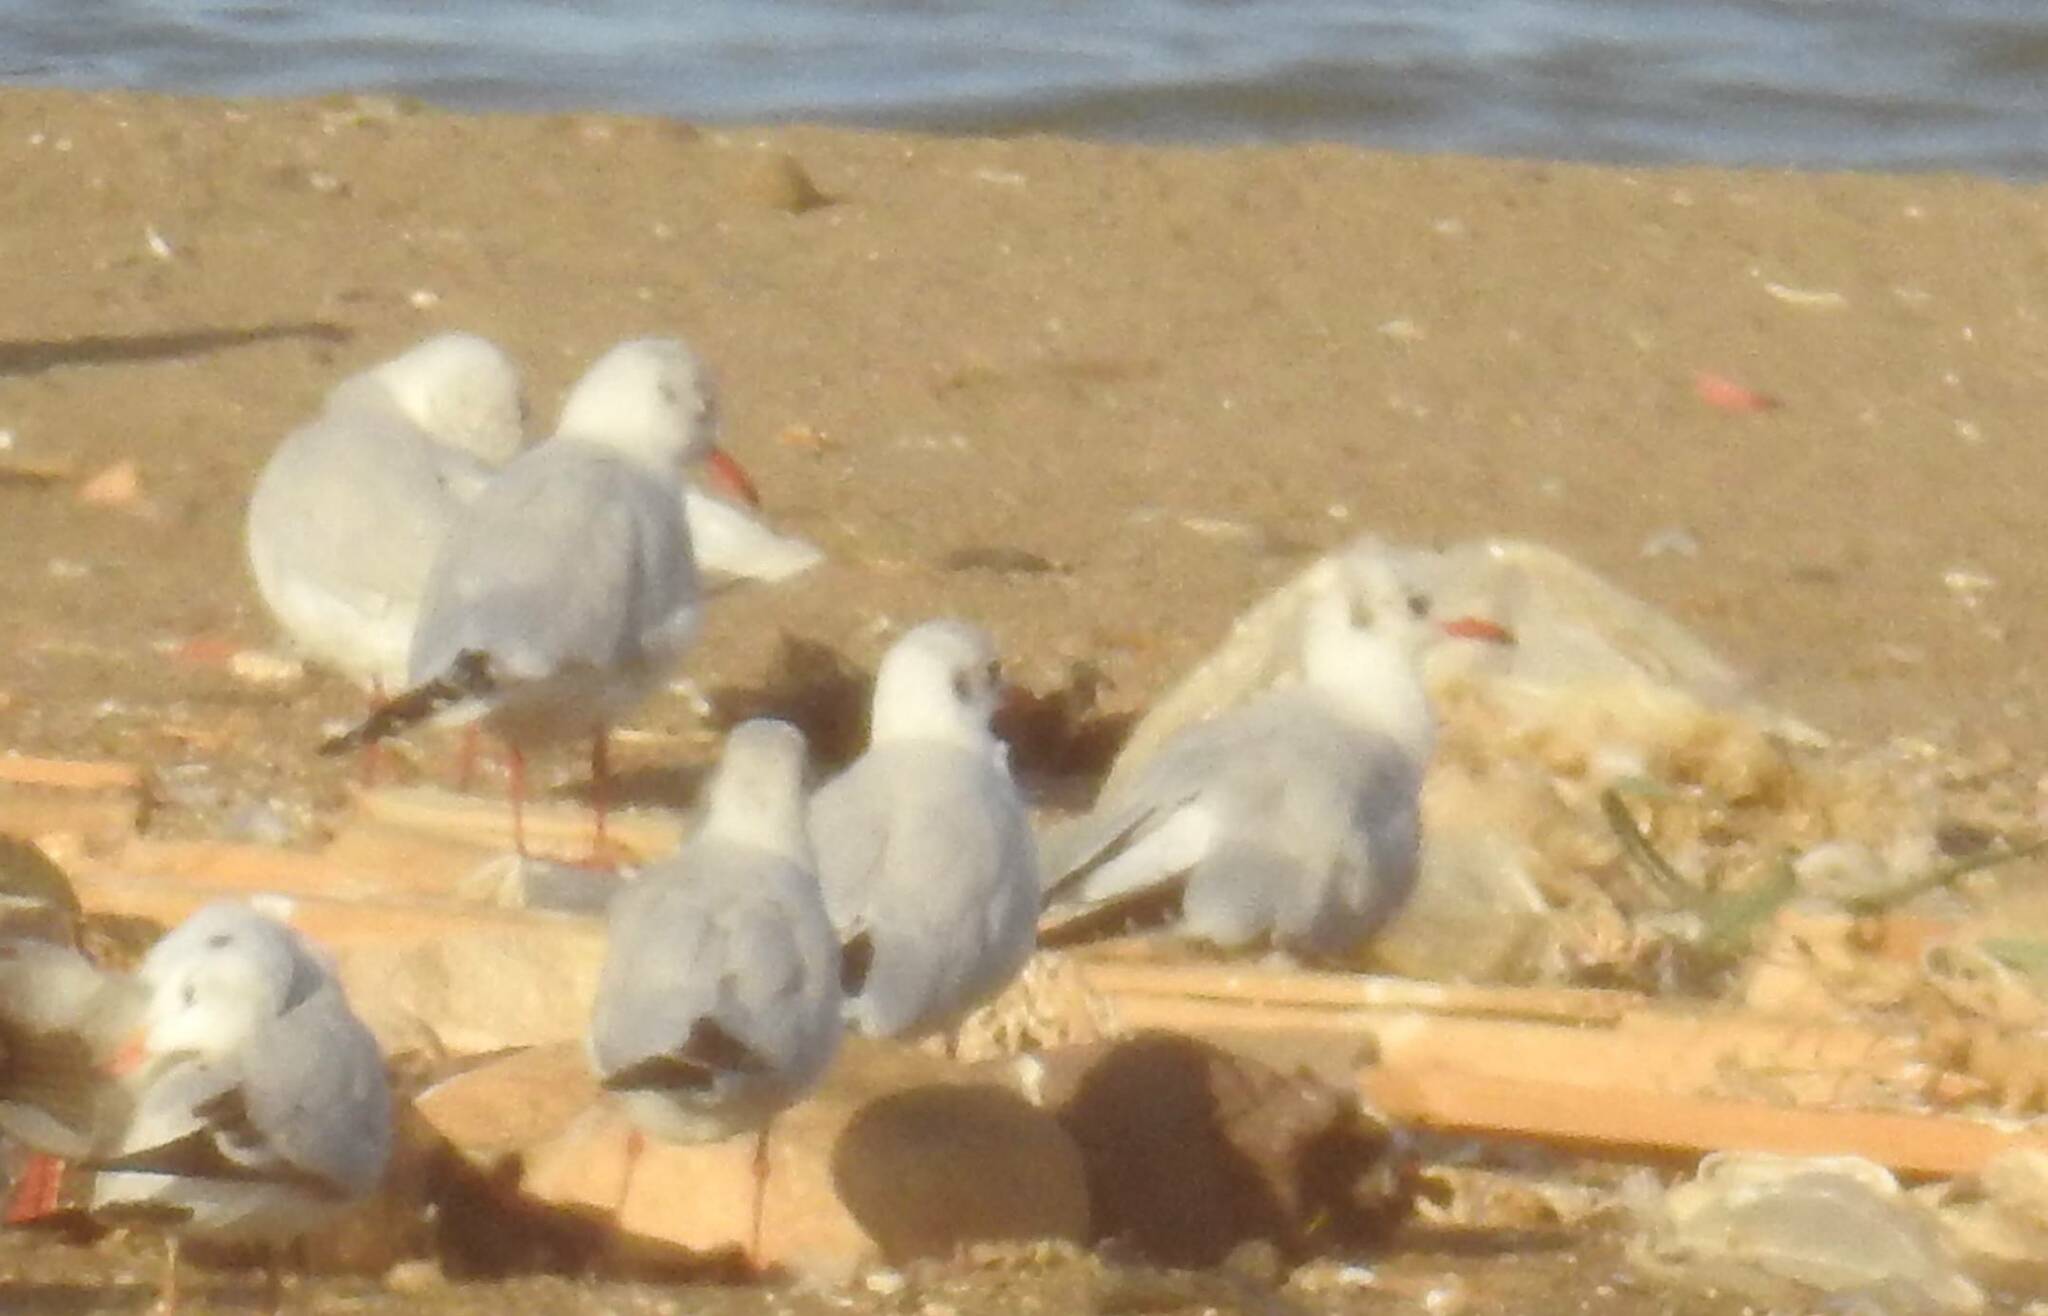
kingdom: Animalia
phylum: Chordata
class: Aves
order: Charadriiformes
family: Laridae
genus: Chroicocephalus
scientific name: Chroicocephalus ridibundus
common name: Black-headed gull
